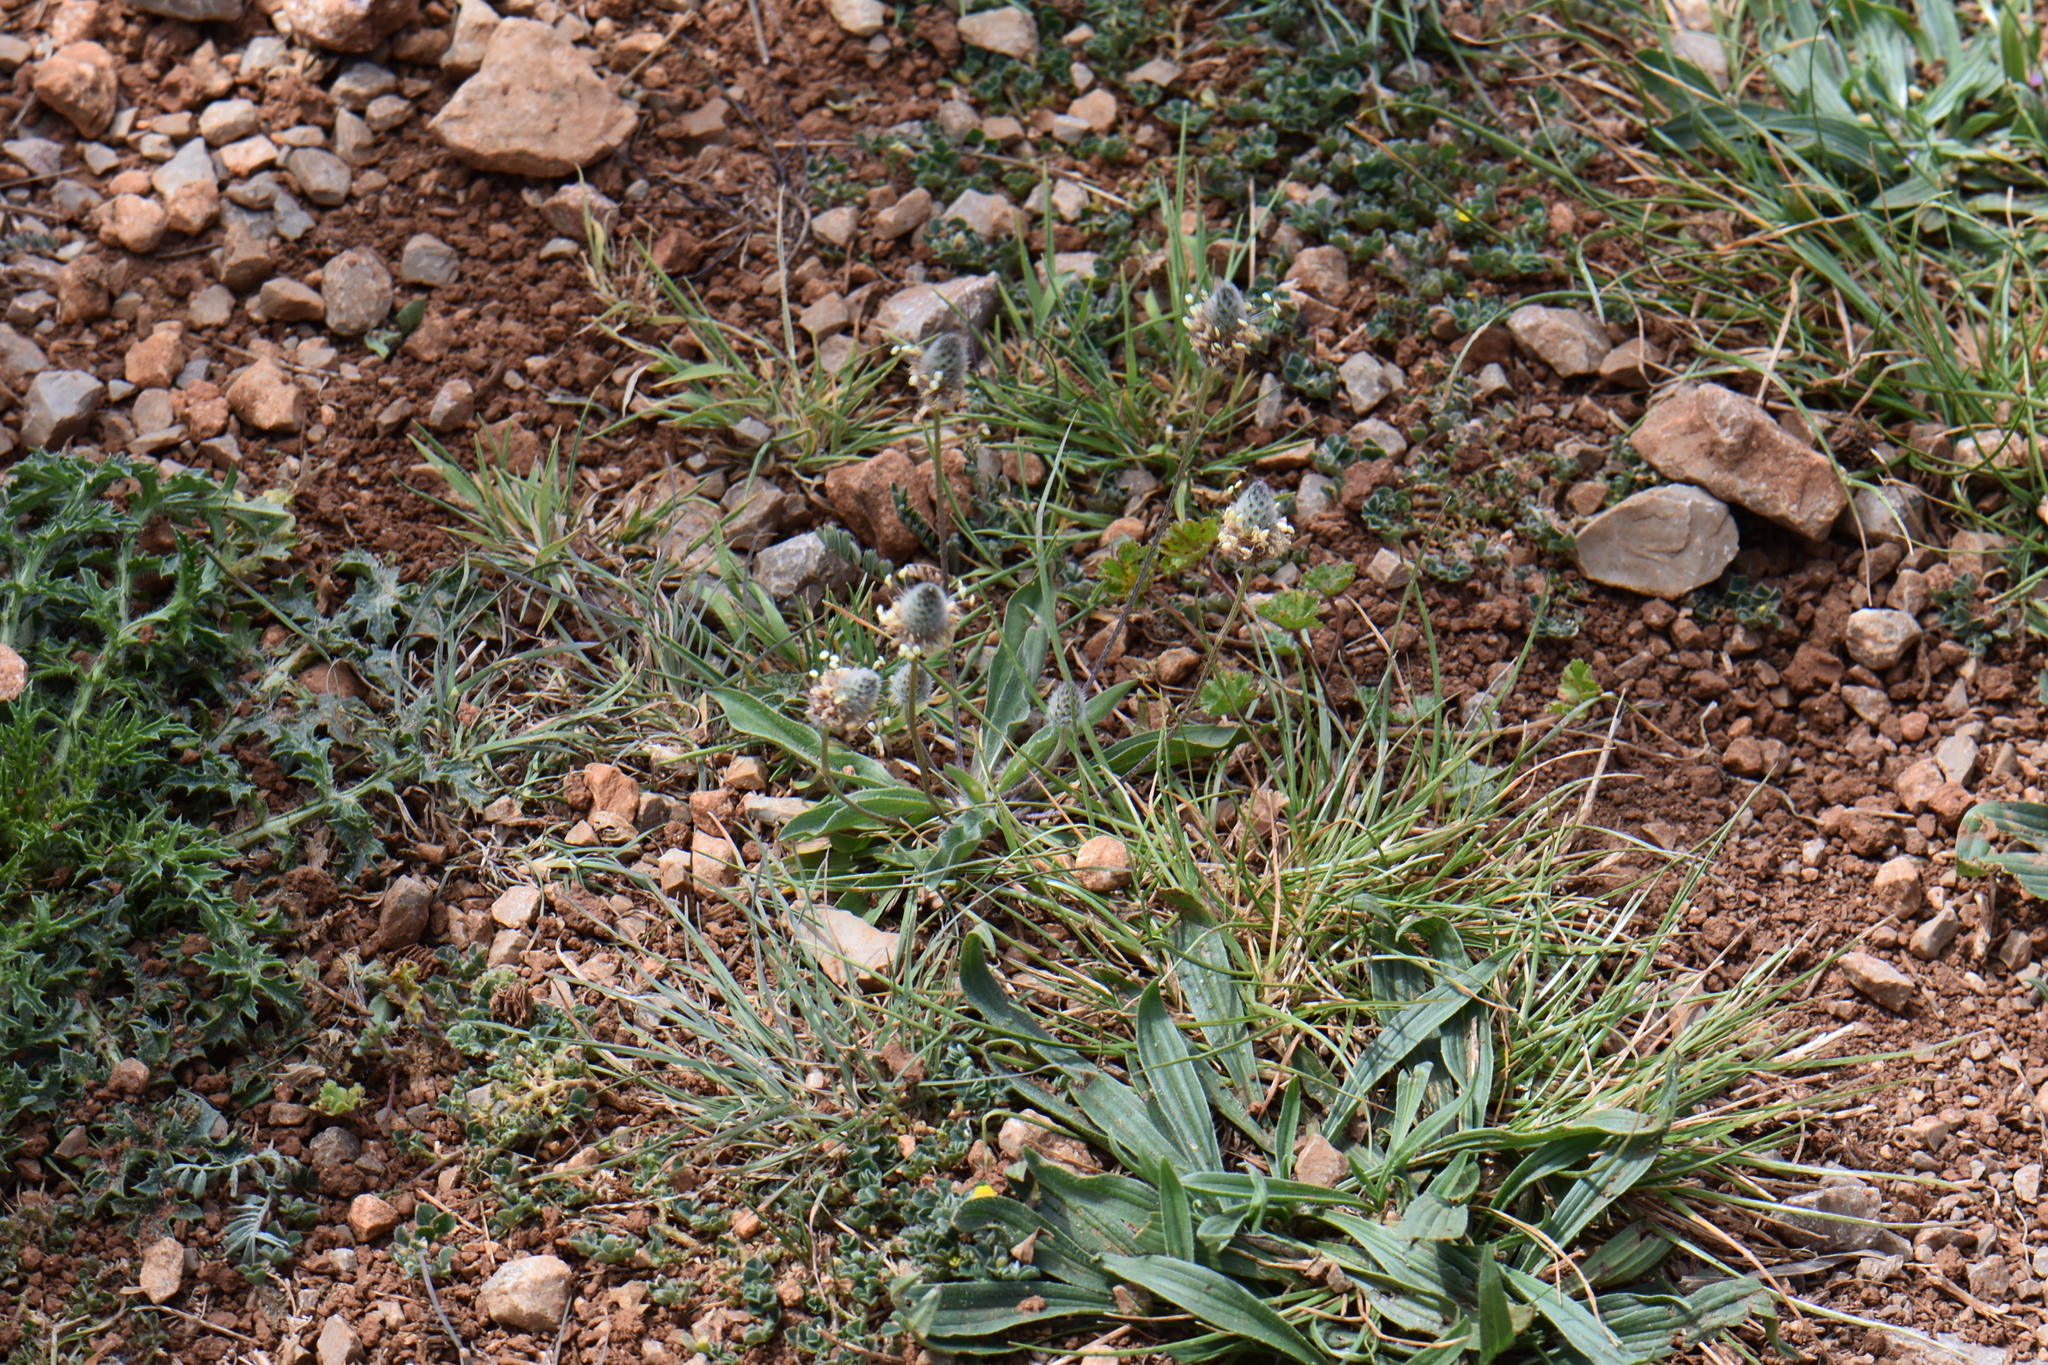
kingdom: Plantae
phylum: Tracheophyta
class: Magnoliopsida
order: Lamiales
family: Plantaginaceae
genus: Plantago
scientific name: Plantago lagopus
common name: Hare-foot plantain
